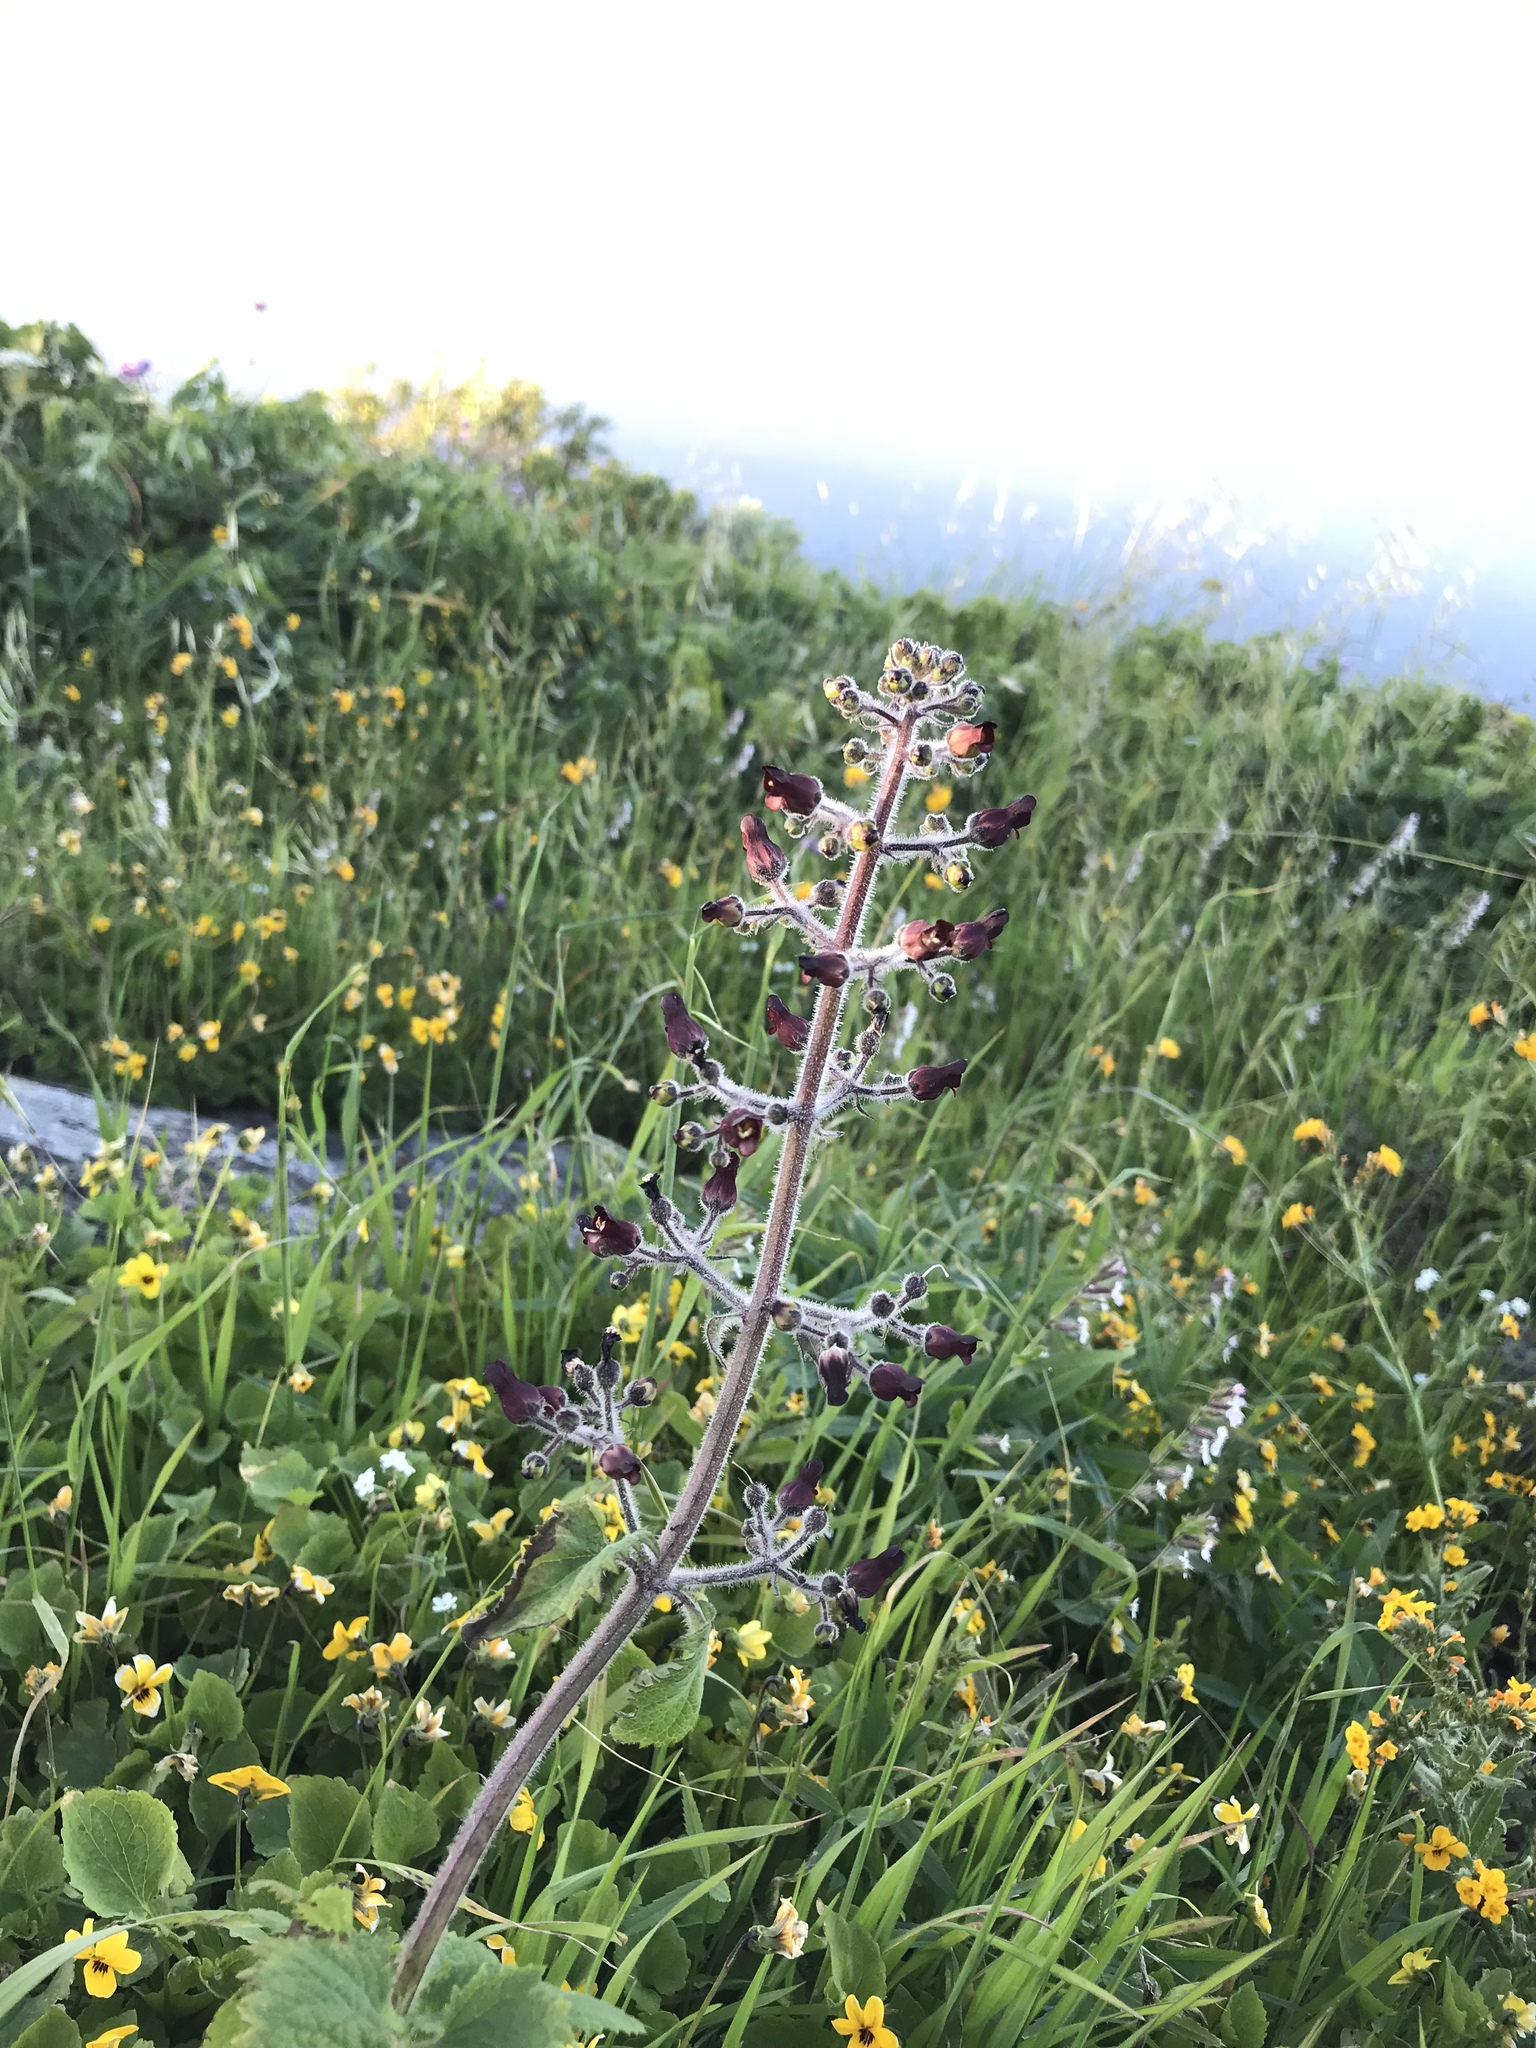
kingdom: Plantae
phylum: Tracheophyta
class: Magnoliopsida
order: Lamiales
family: Scrophulariaceae
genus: Scrophularia
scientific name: Scrophularia villosa
